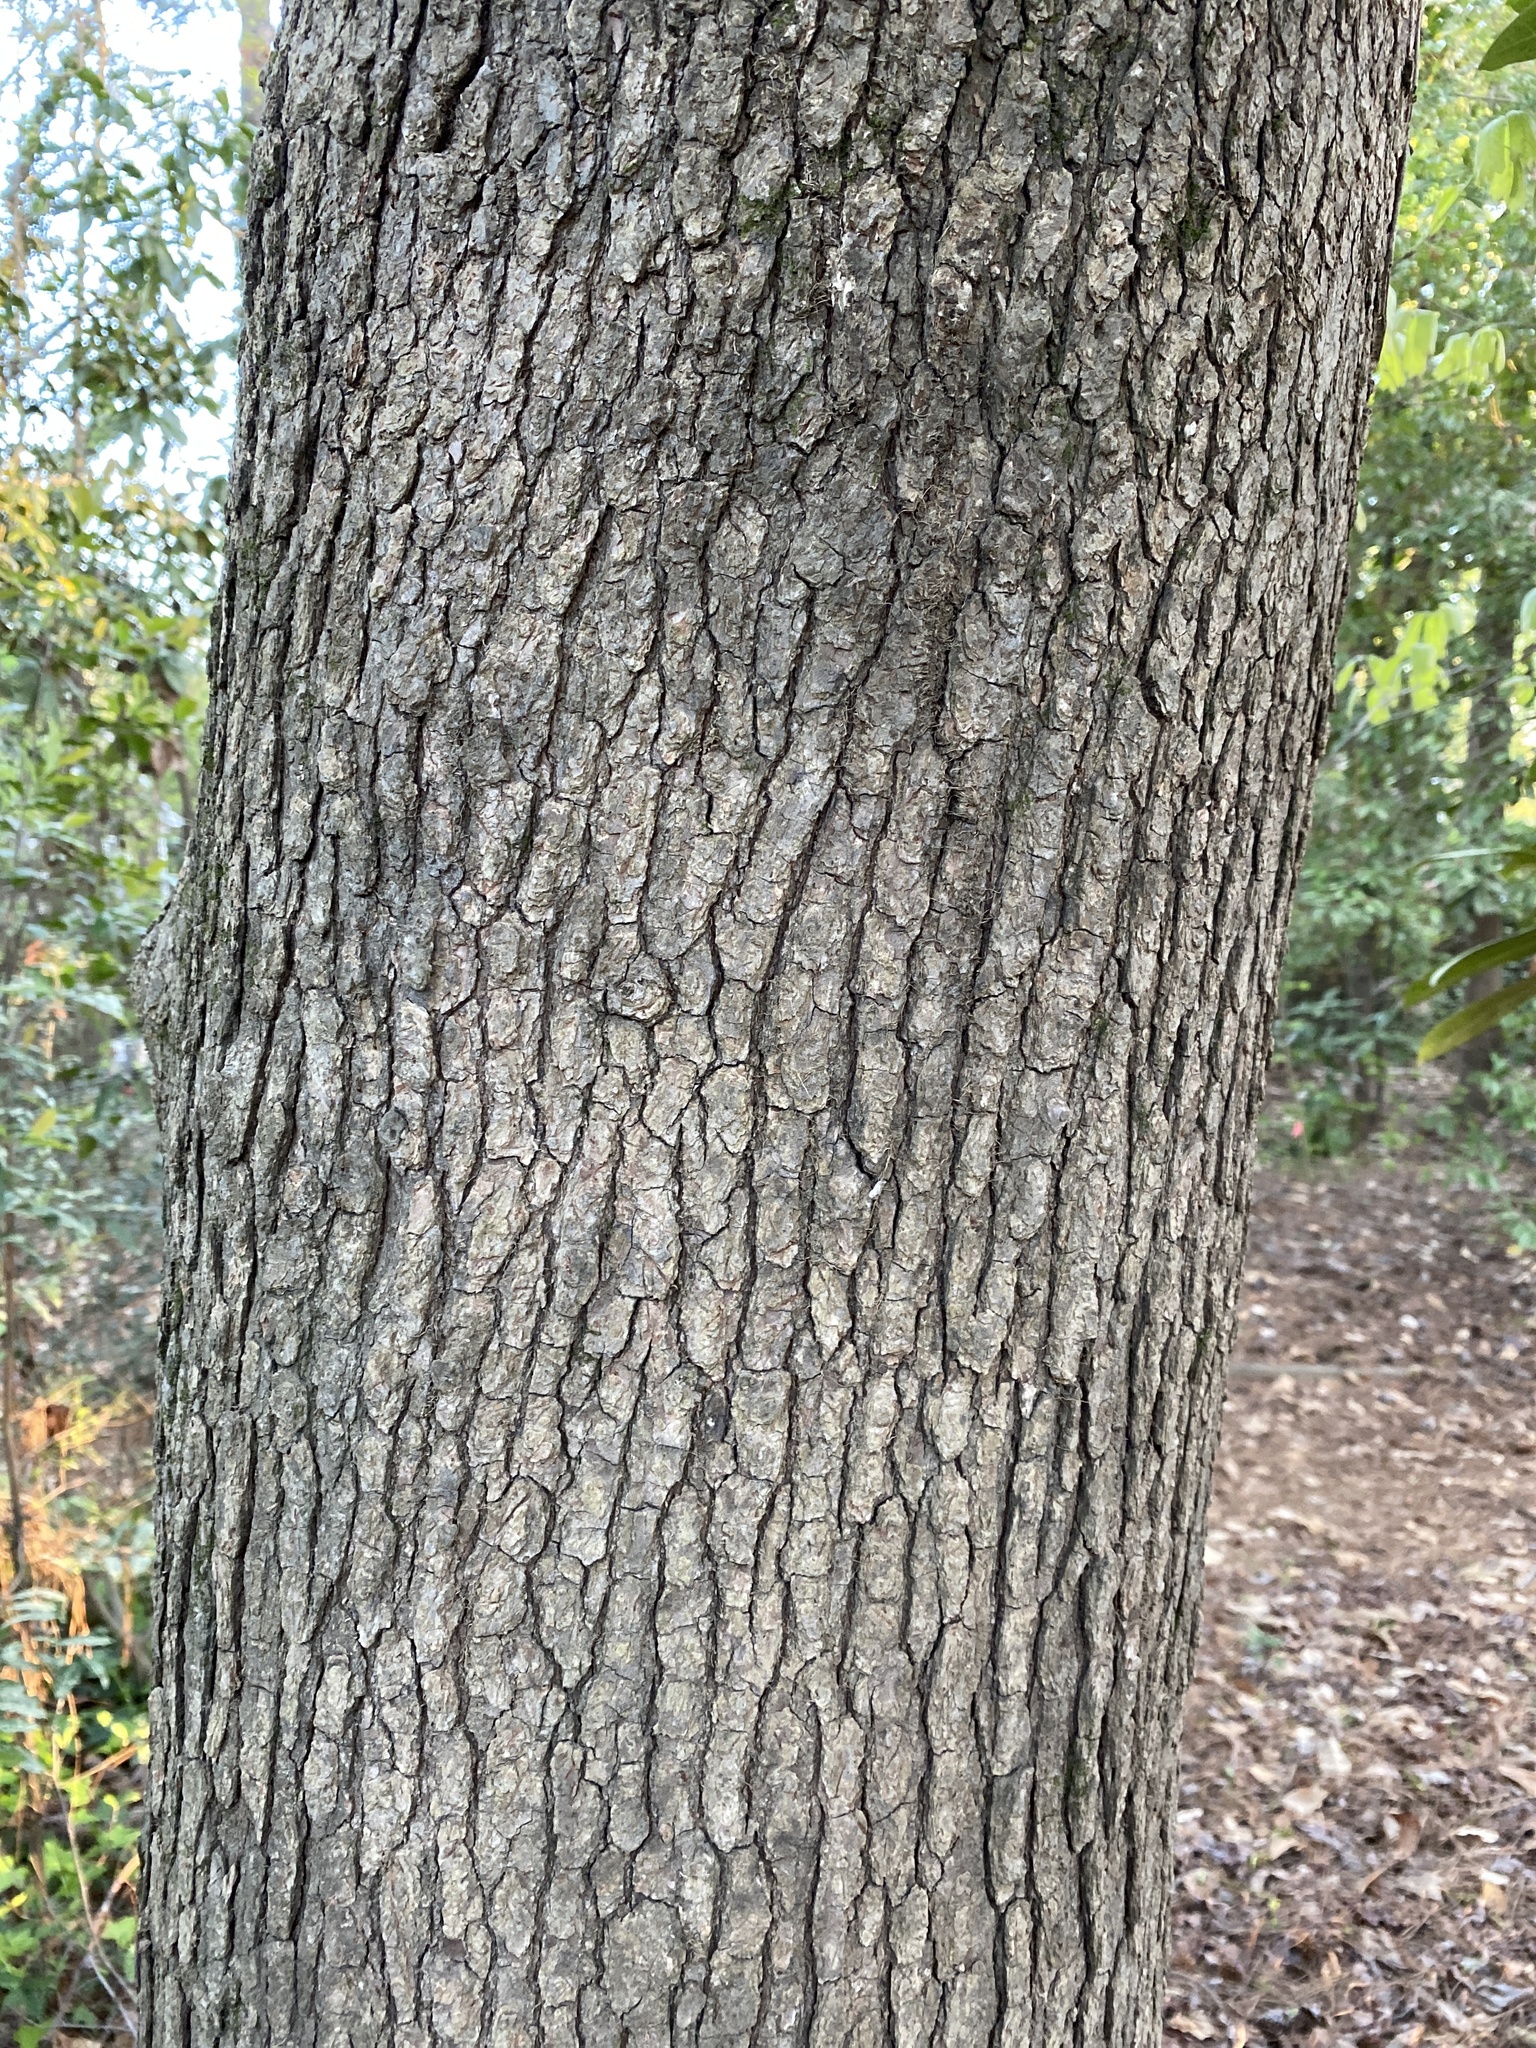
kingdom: Plantae
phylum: Tracheophyta
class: Magnoliopsida
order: Saxifragales
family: Altingiaceae
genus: Liquidambar
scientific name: Liquidambar styraciflua
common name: Sweet gum
